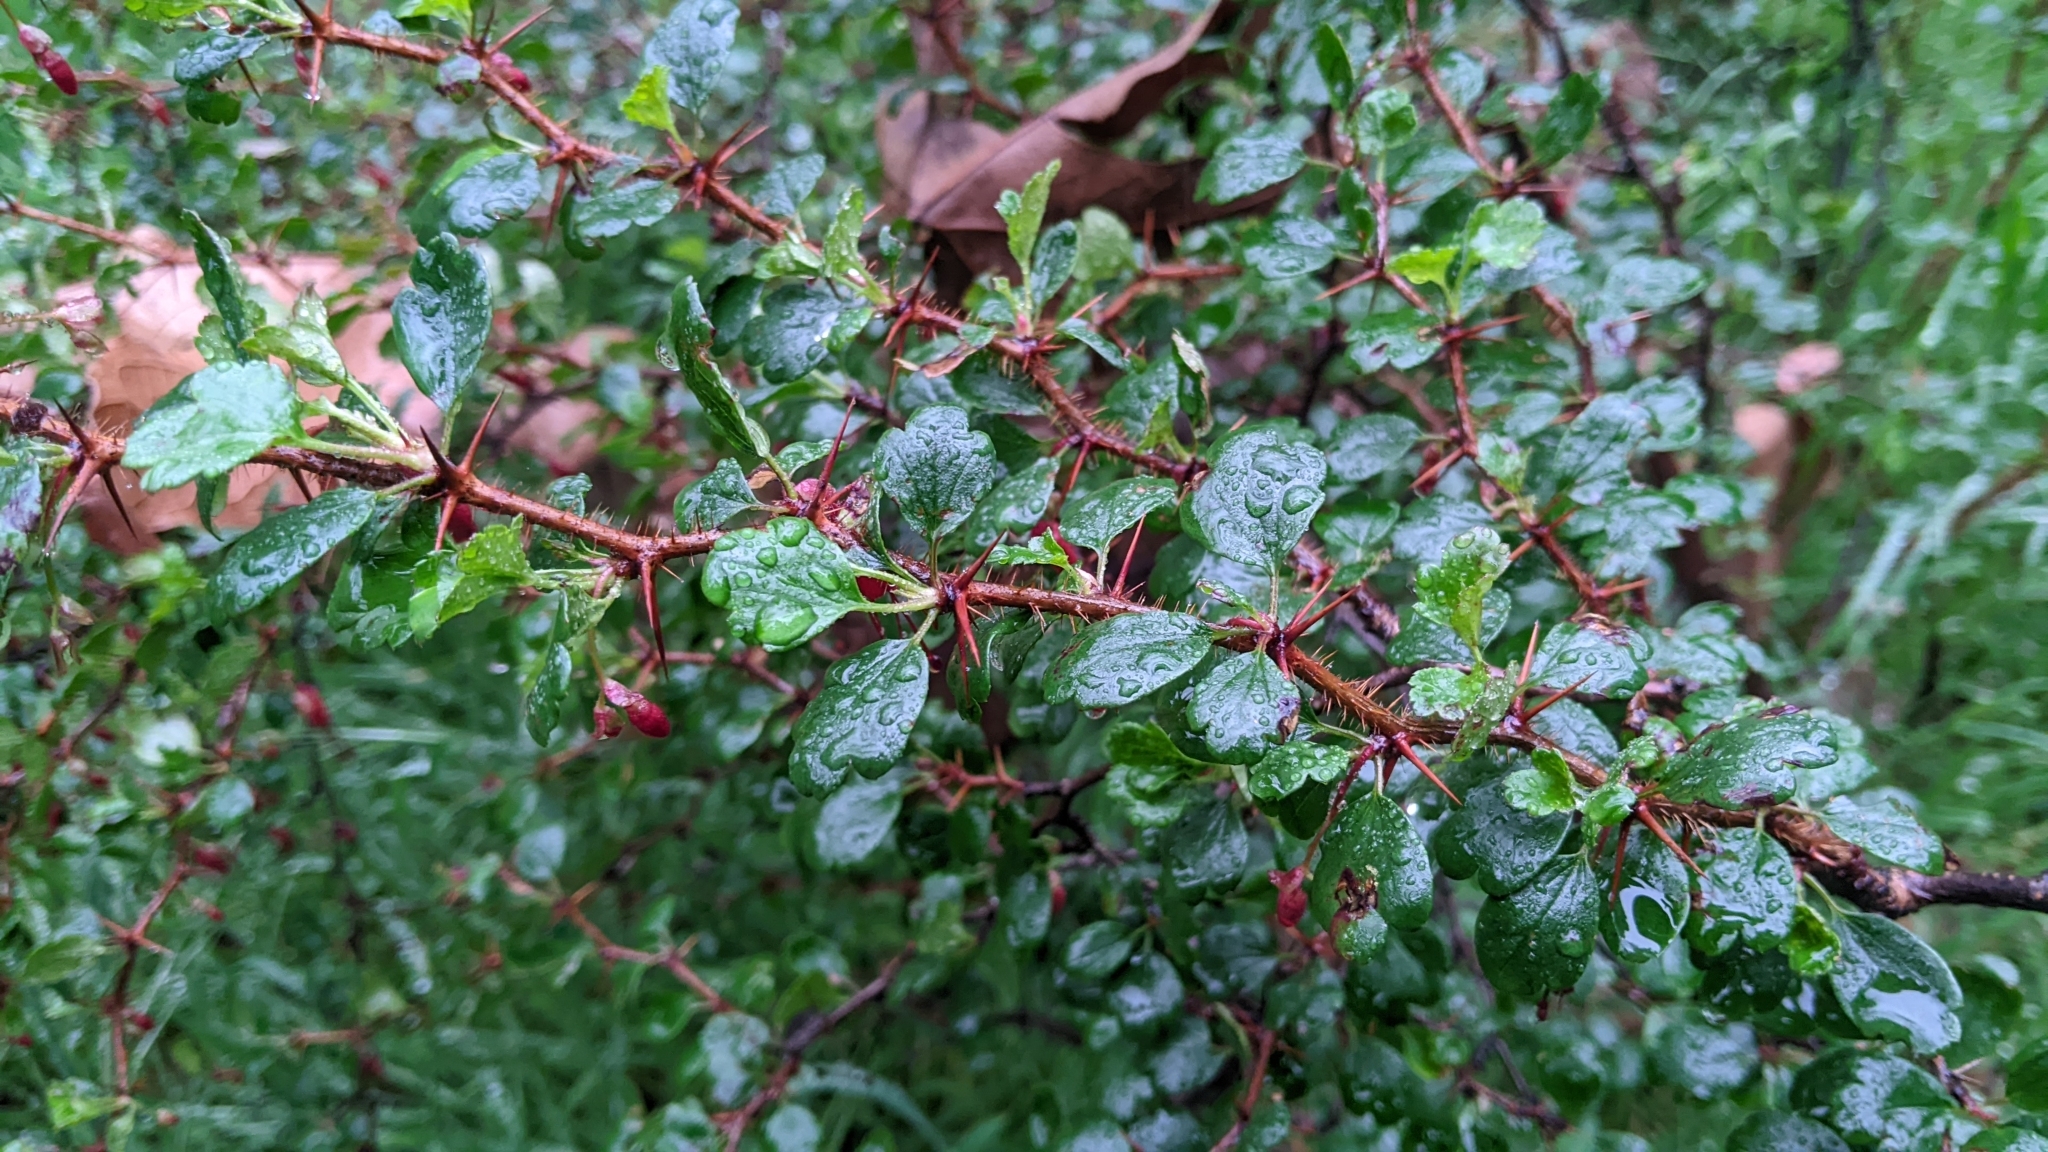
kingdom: Plantae
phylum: Tracheophyta
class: Magnoliopsida
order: Saxifragales
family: Grossulariaceae
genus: Ribes
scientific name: Ribes speciosum
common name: Fuchsia-flower gooseberry
